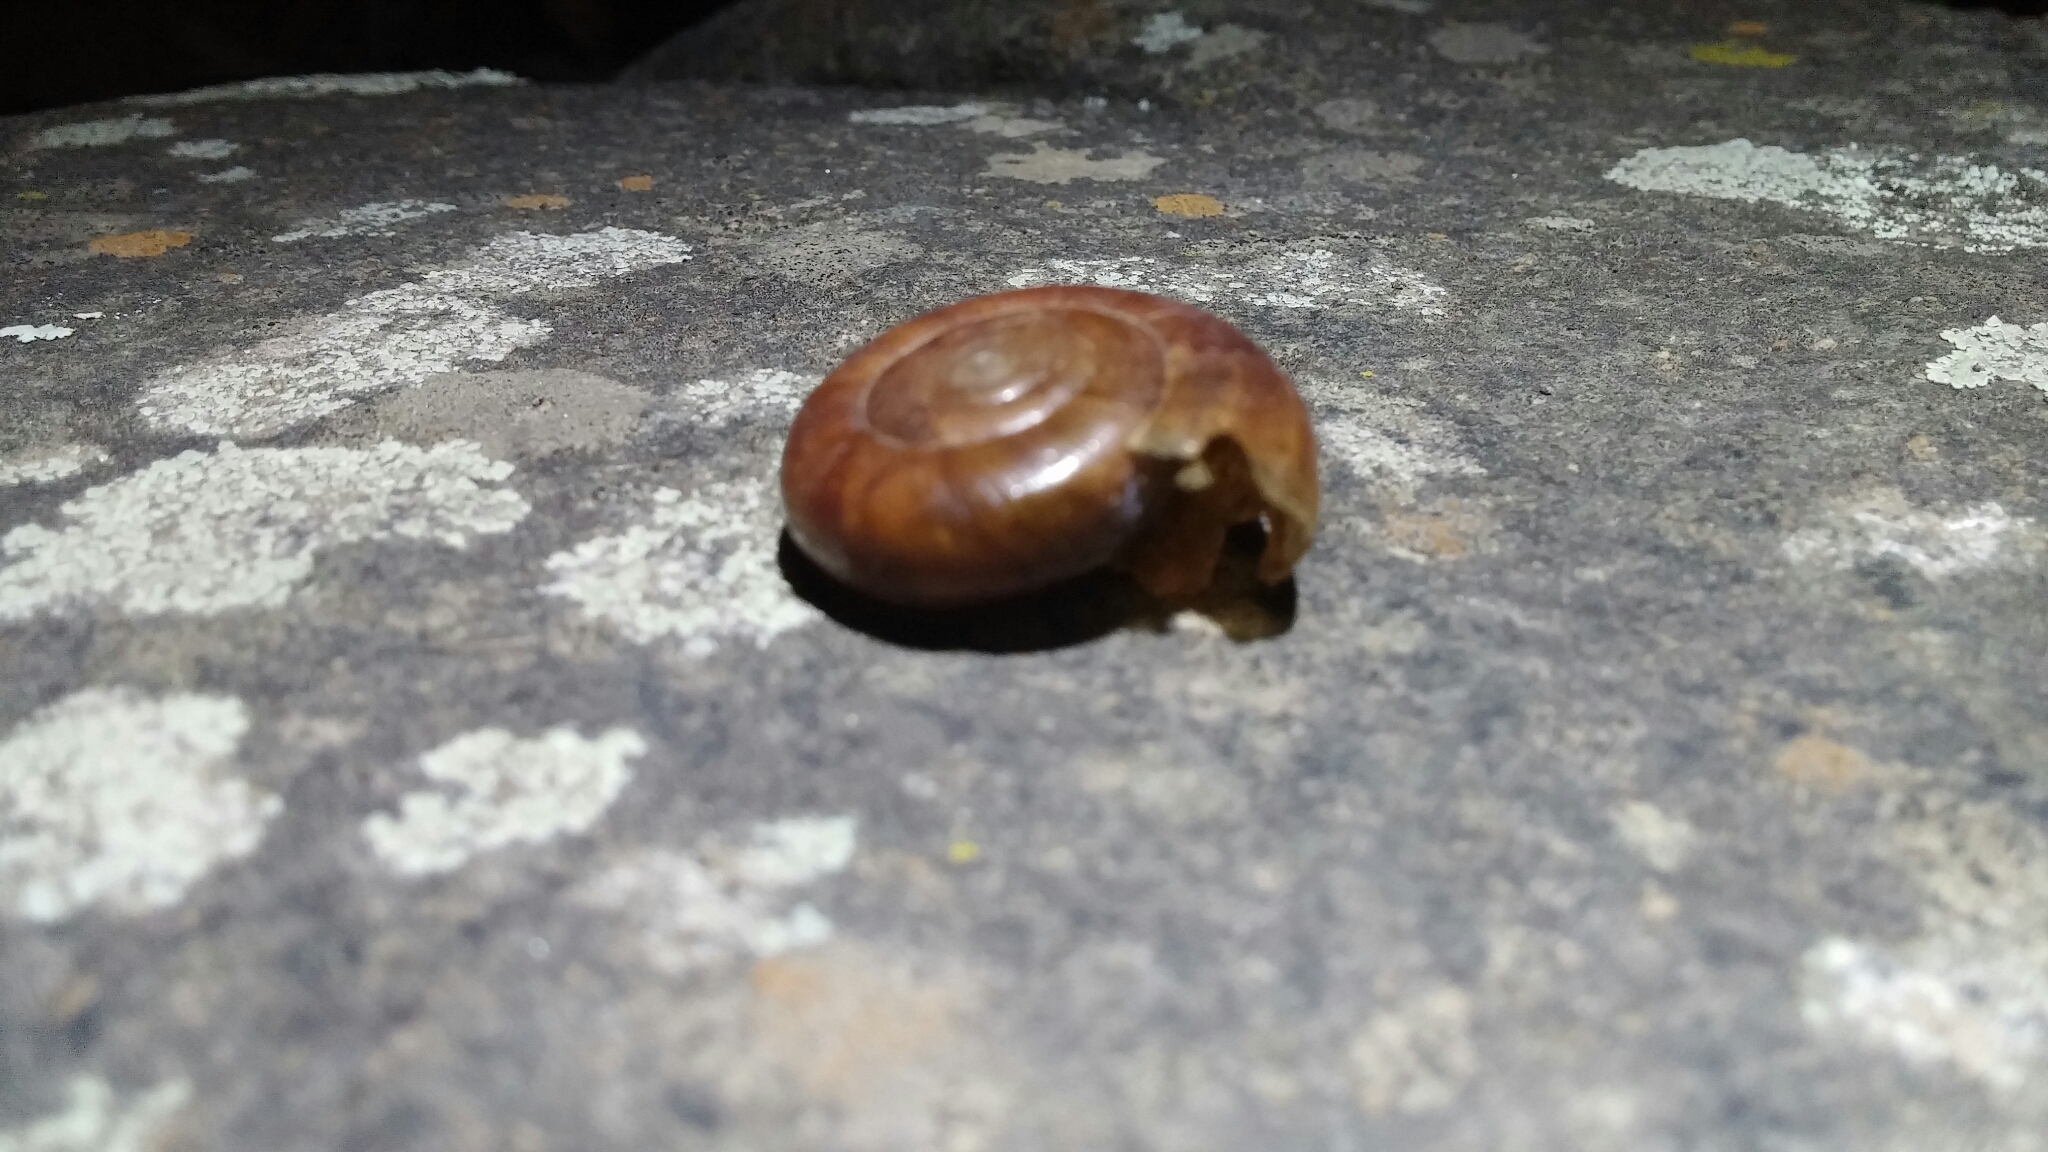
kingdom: Animalia
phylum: Mollusca
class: Gastropoda
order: Stylommatophora
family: Megomphicidae
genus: Glyptostoma
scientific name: Glyptostoma newberryanum
